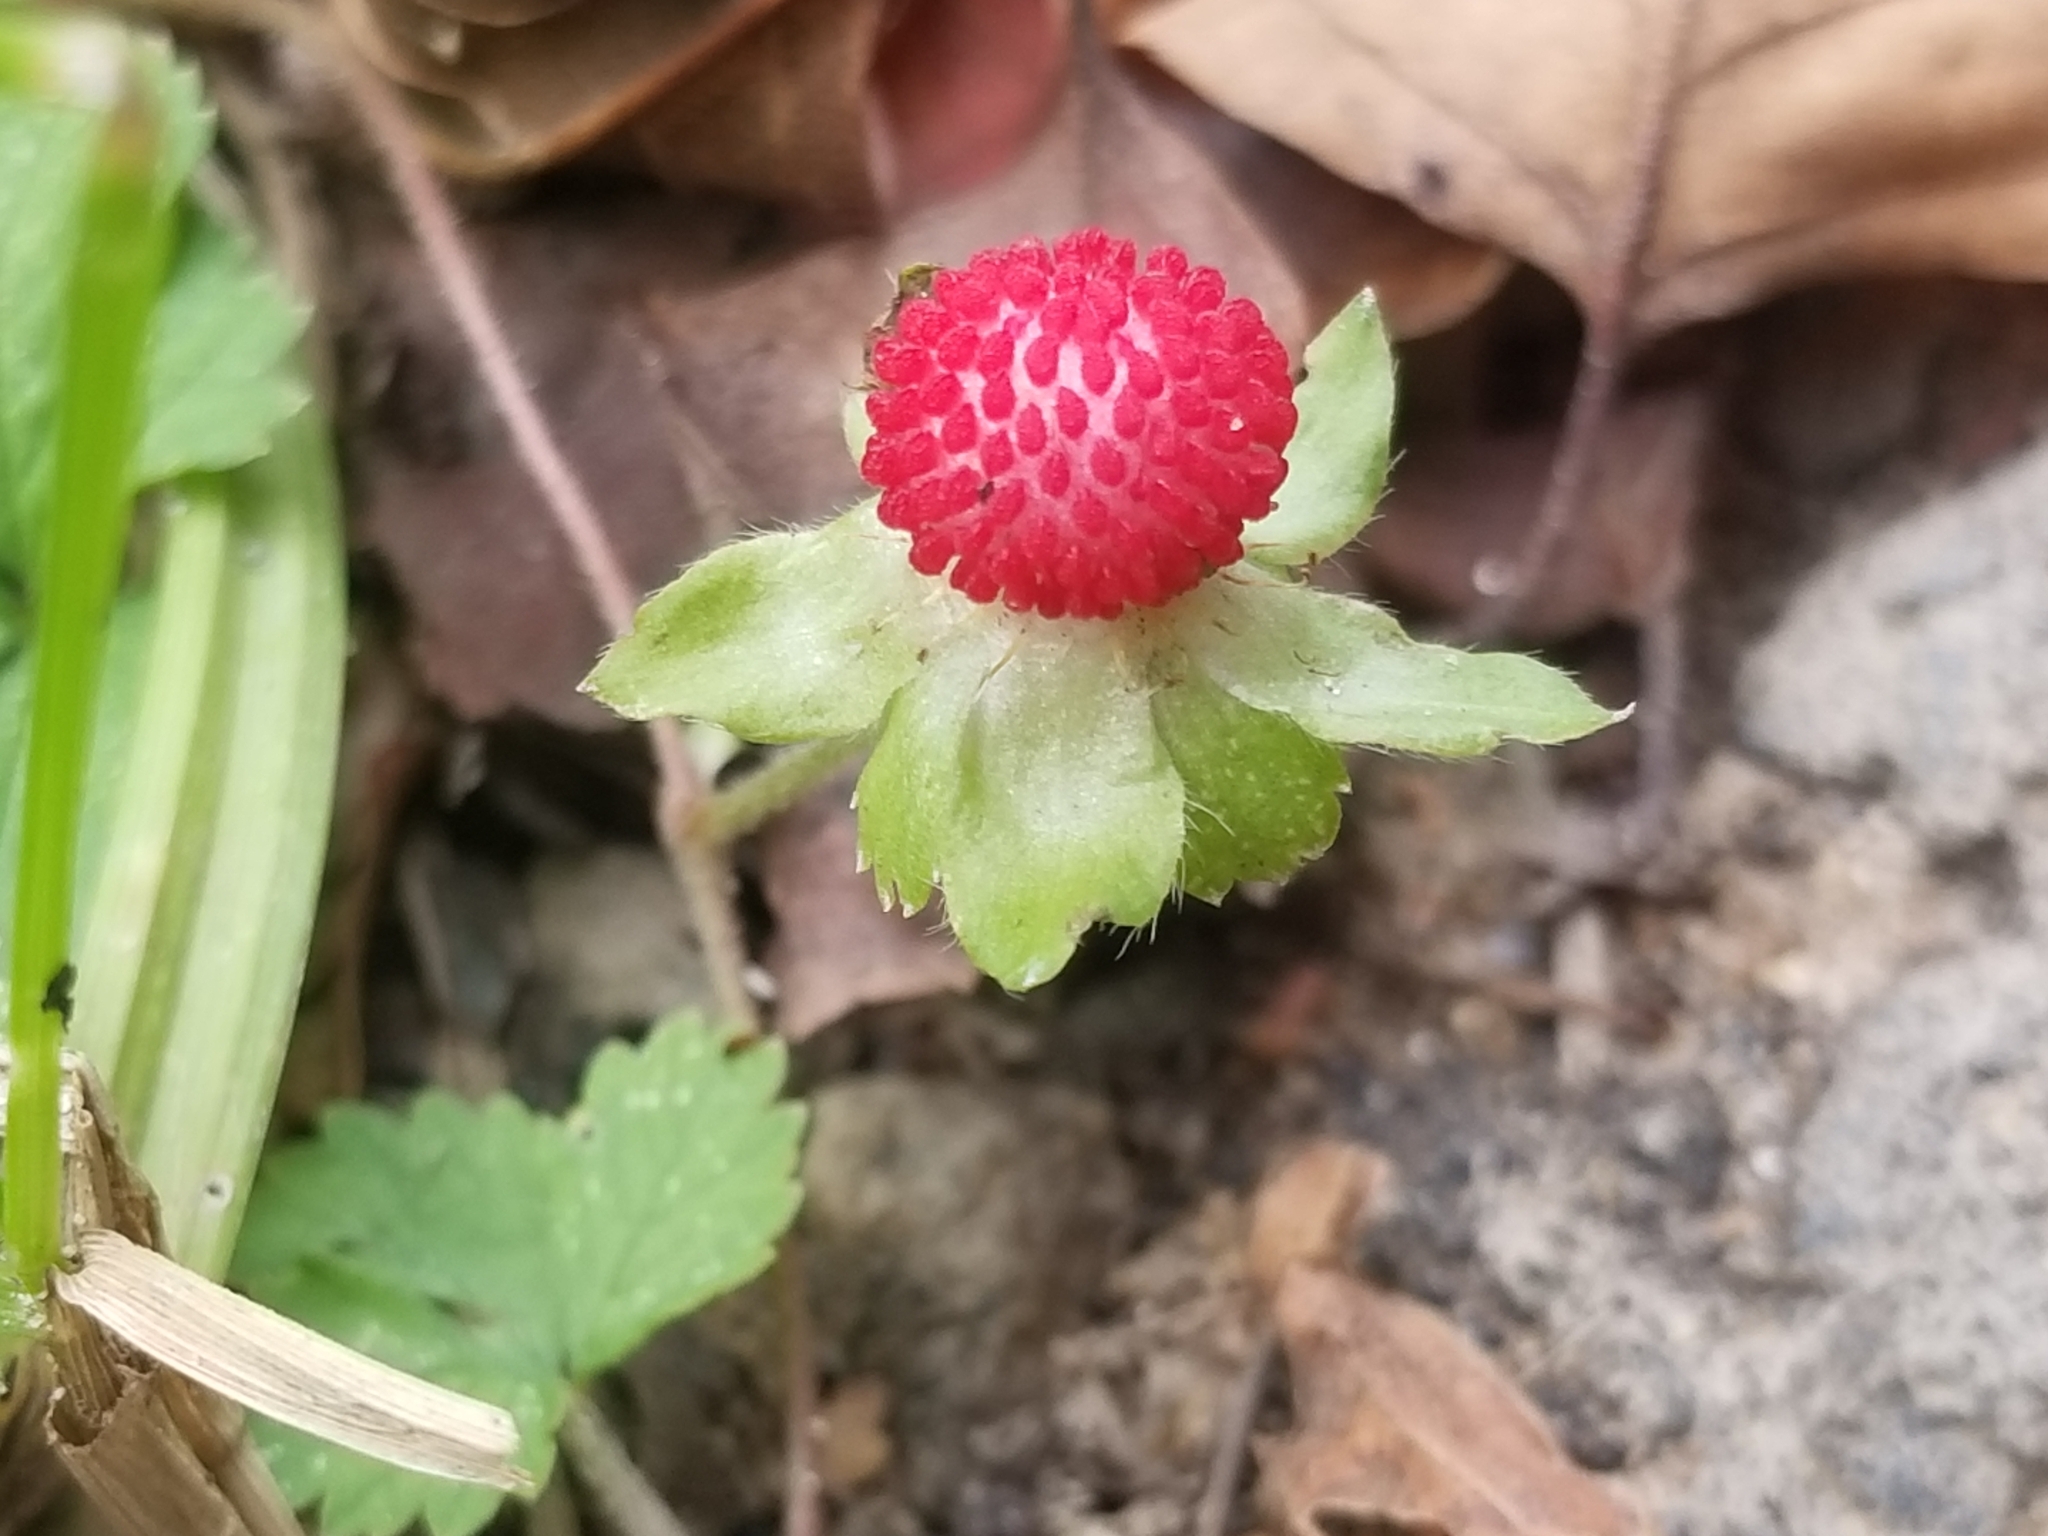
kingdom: Plantae
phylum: Tracheophyta
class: Magnoliopsida
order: Rosales
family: Rosaceae
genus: Potentilla
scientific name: Potentilla indica
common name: Yellow-flowered strawberry
